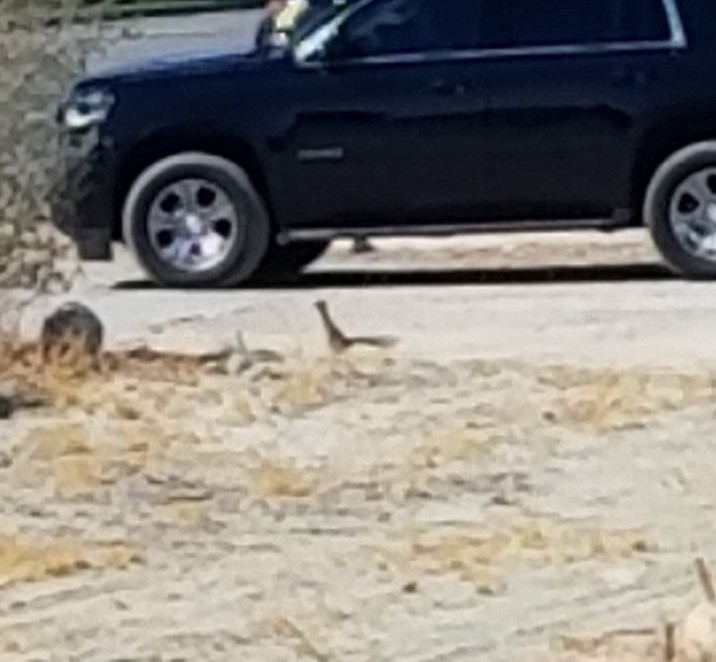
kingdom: Animalia
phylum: Chordata
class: Aves
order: Cuculiformes
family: Cuculidae
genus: Geococcyx
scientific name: Geococcyx californianus
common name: Greater roadrunner
